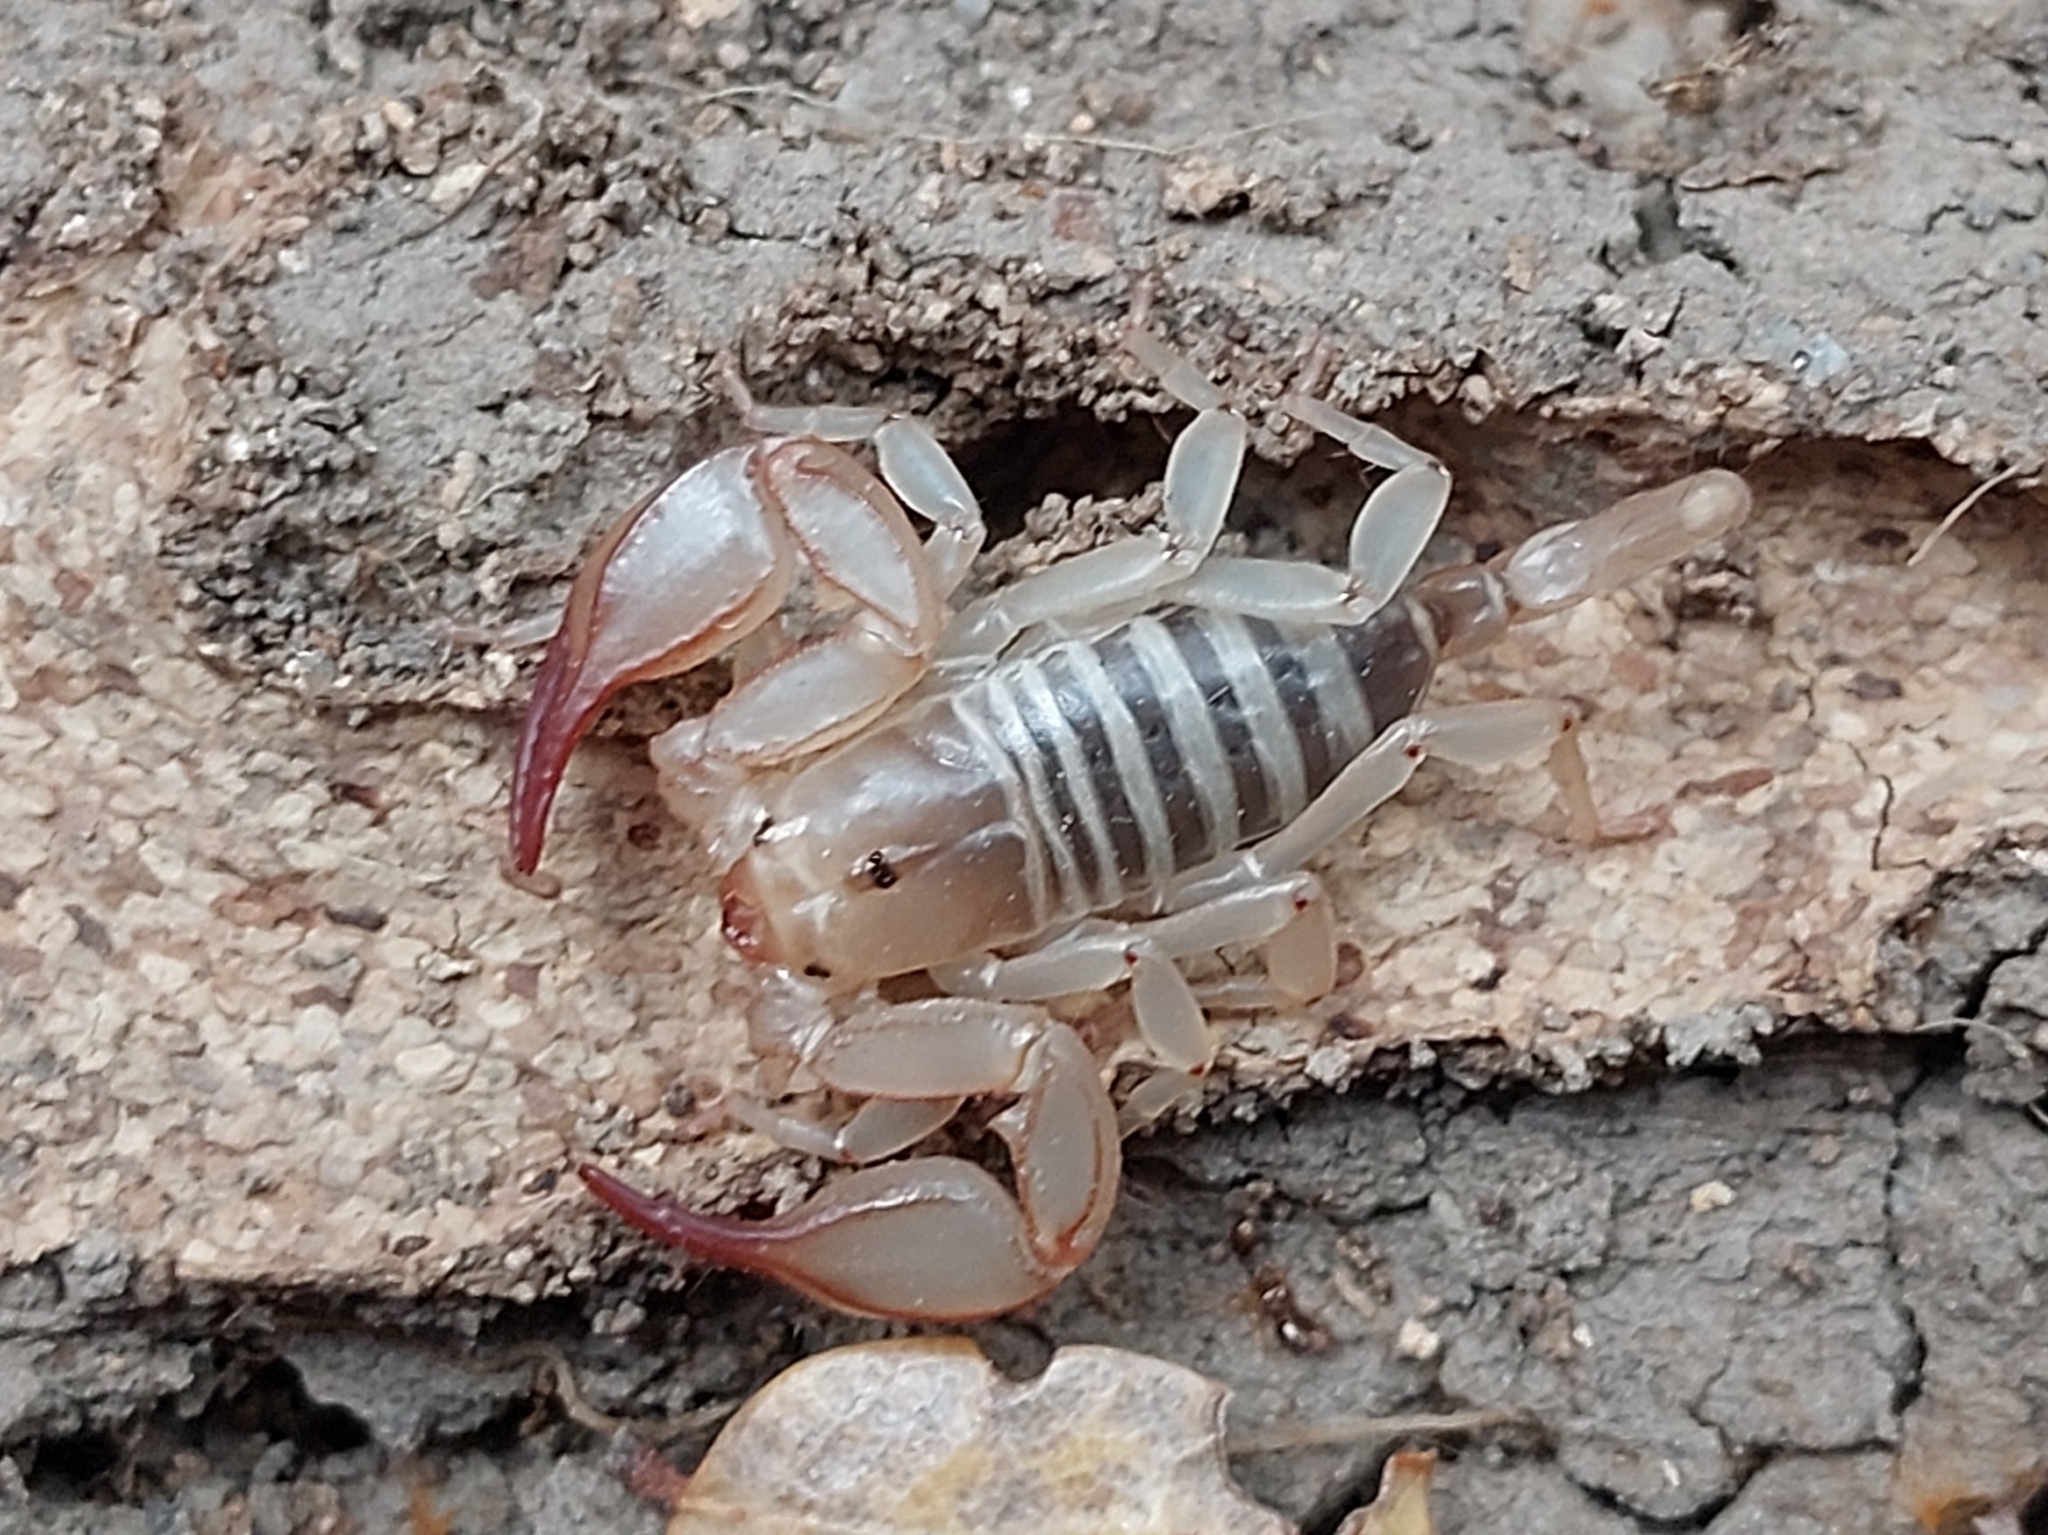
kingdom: Animalia
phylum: Arthropoda
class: Arachnida
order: Scorpiones
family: Euscorpiidae
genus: Euscorpius
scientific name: Euscorpius candiota
